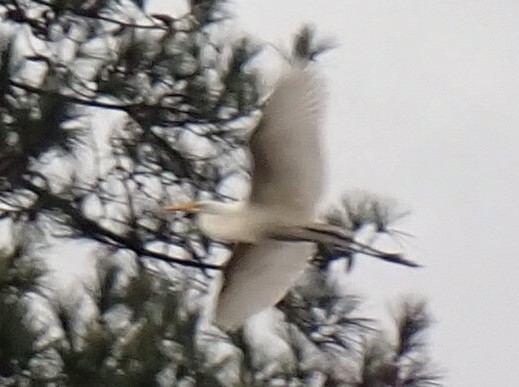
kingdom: Animalia
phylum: Chordata
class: Aves
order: Pelecaniformes
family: Ardeidae
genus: Ardea
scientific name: Ardea alba
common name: Great egret
